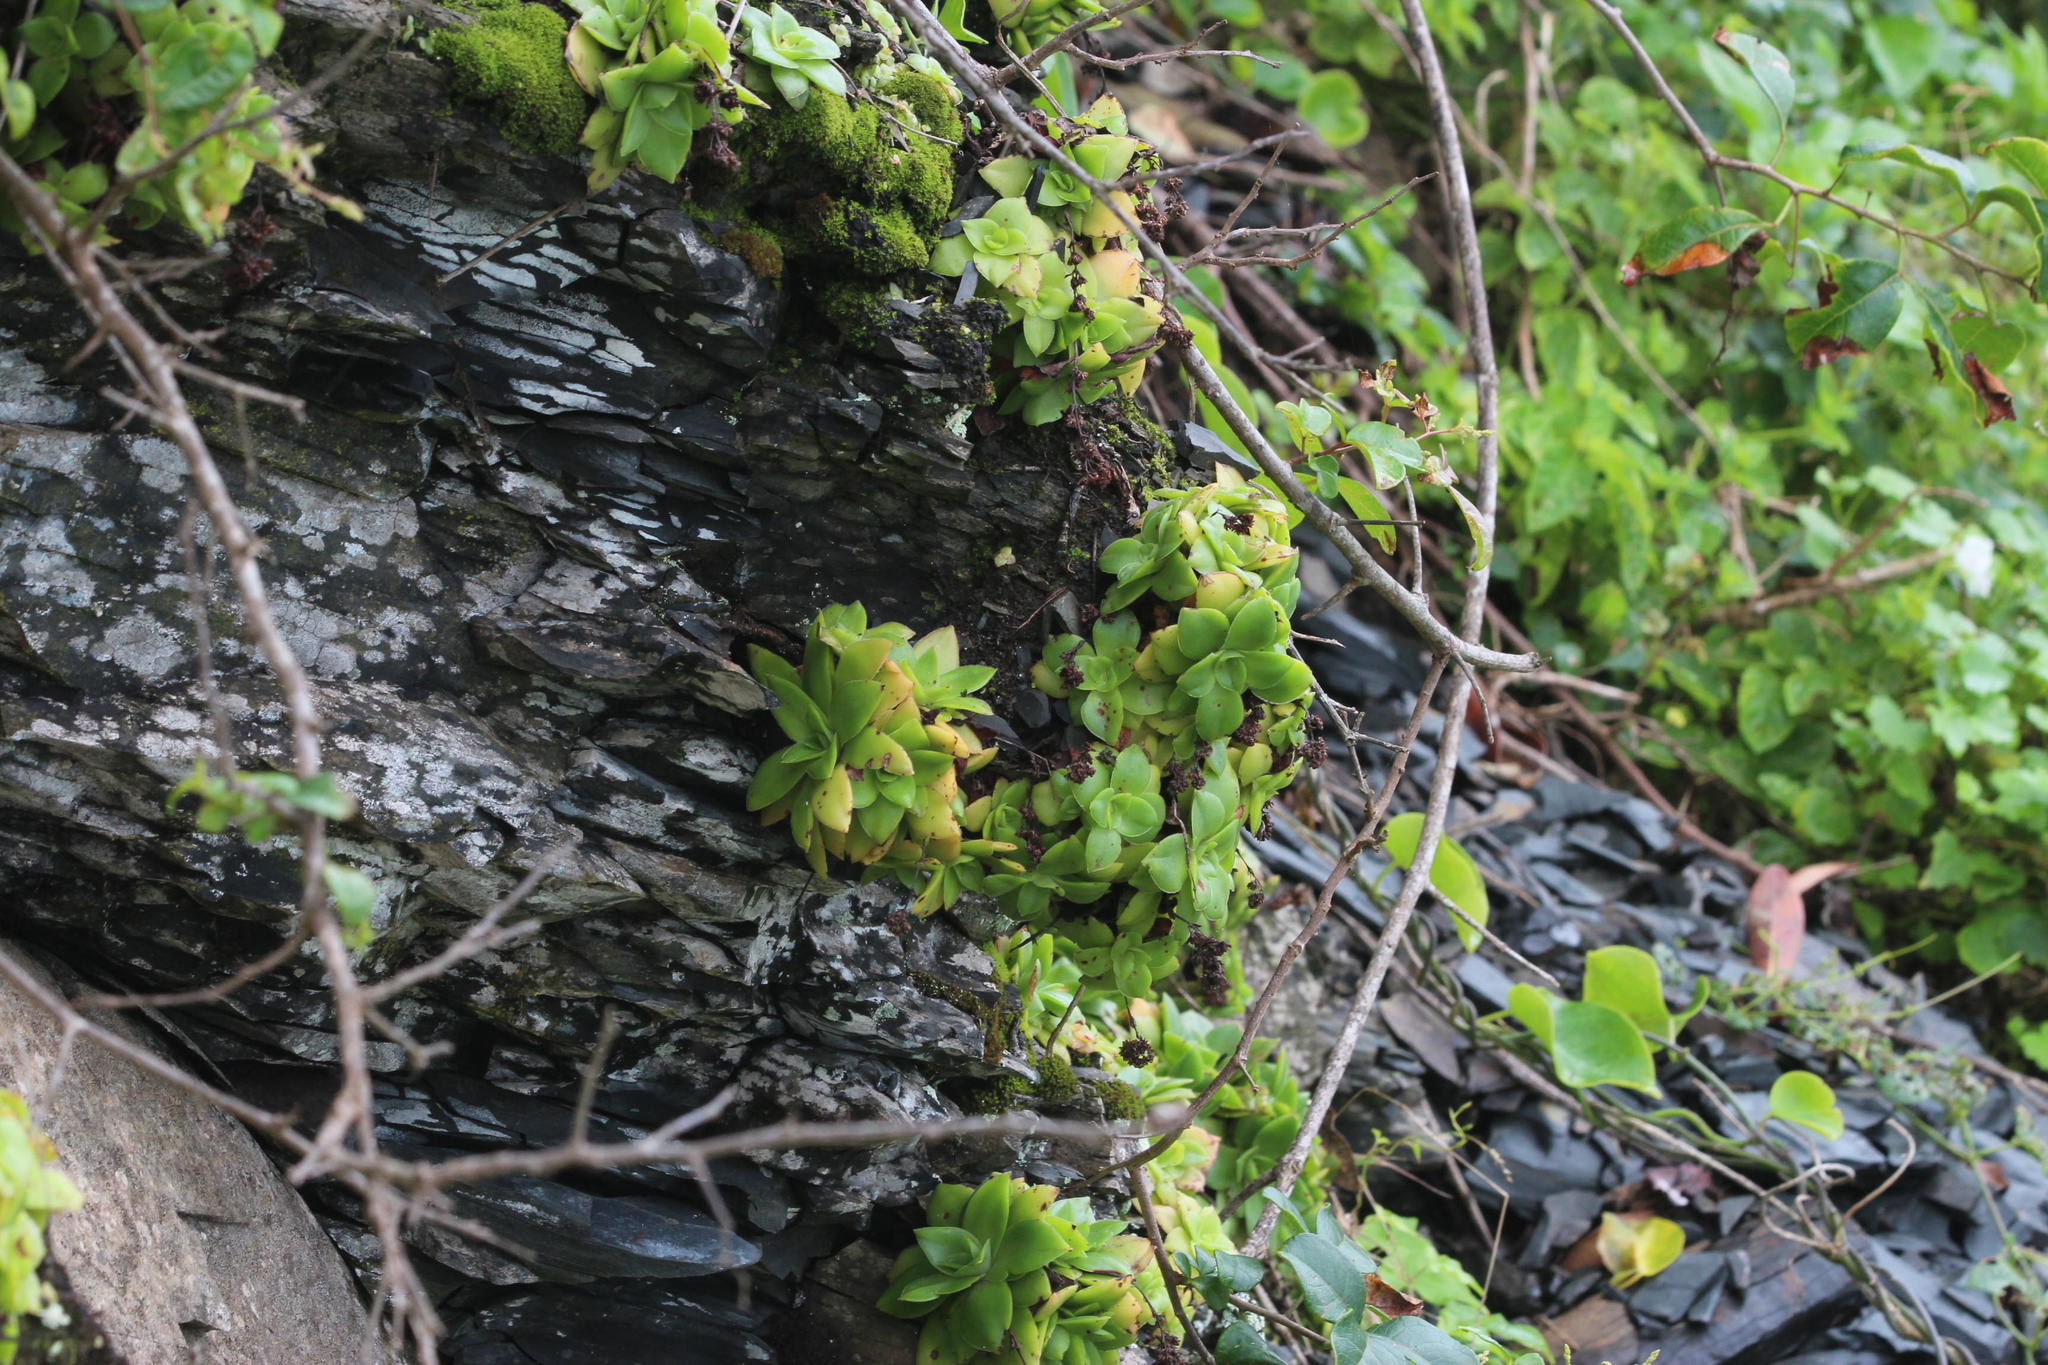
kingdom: Plantae
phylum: Tracheophyta
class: Magnoliopsida
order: Saxifragales
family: Crassulaceae
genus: Crassula
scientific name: Crassula orbicularis
